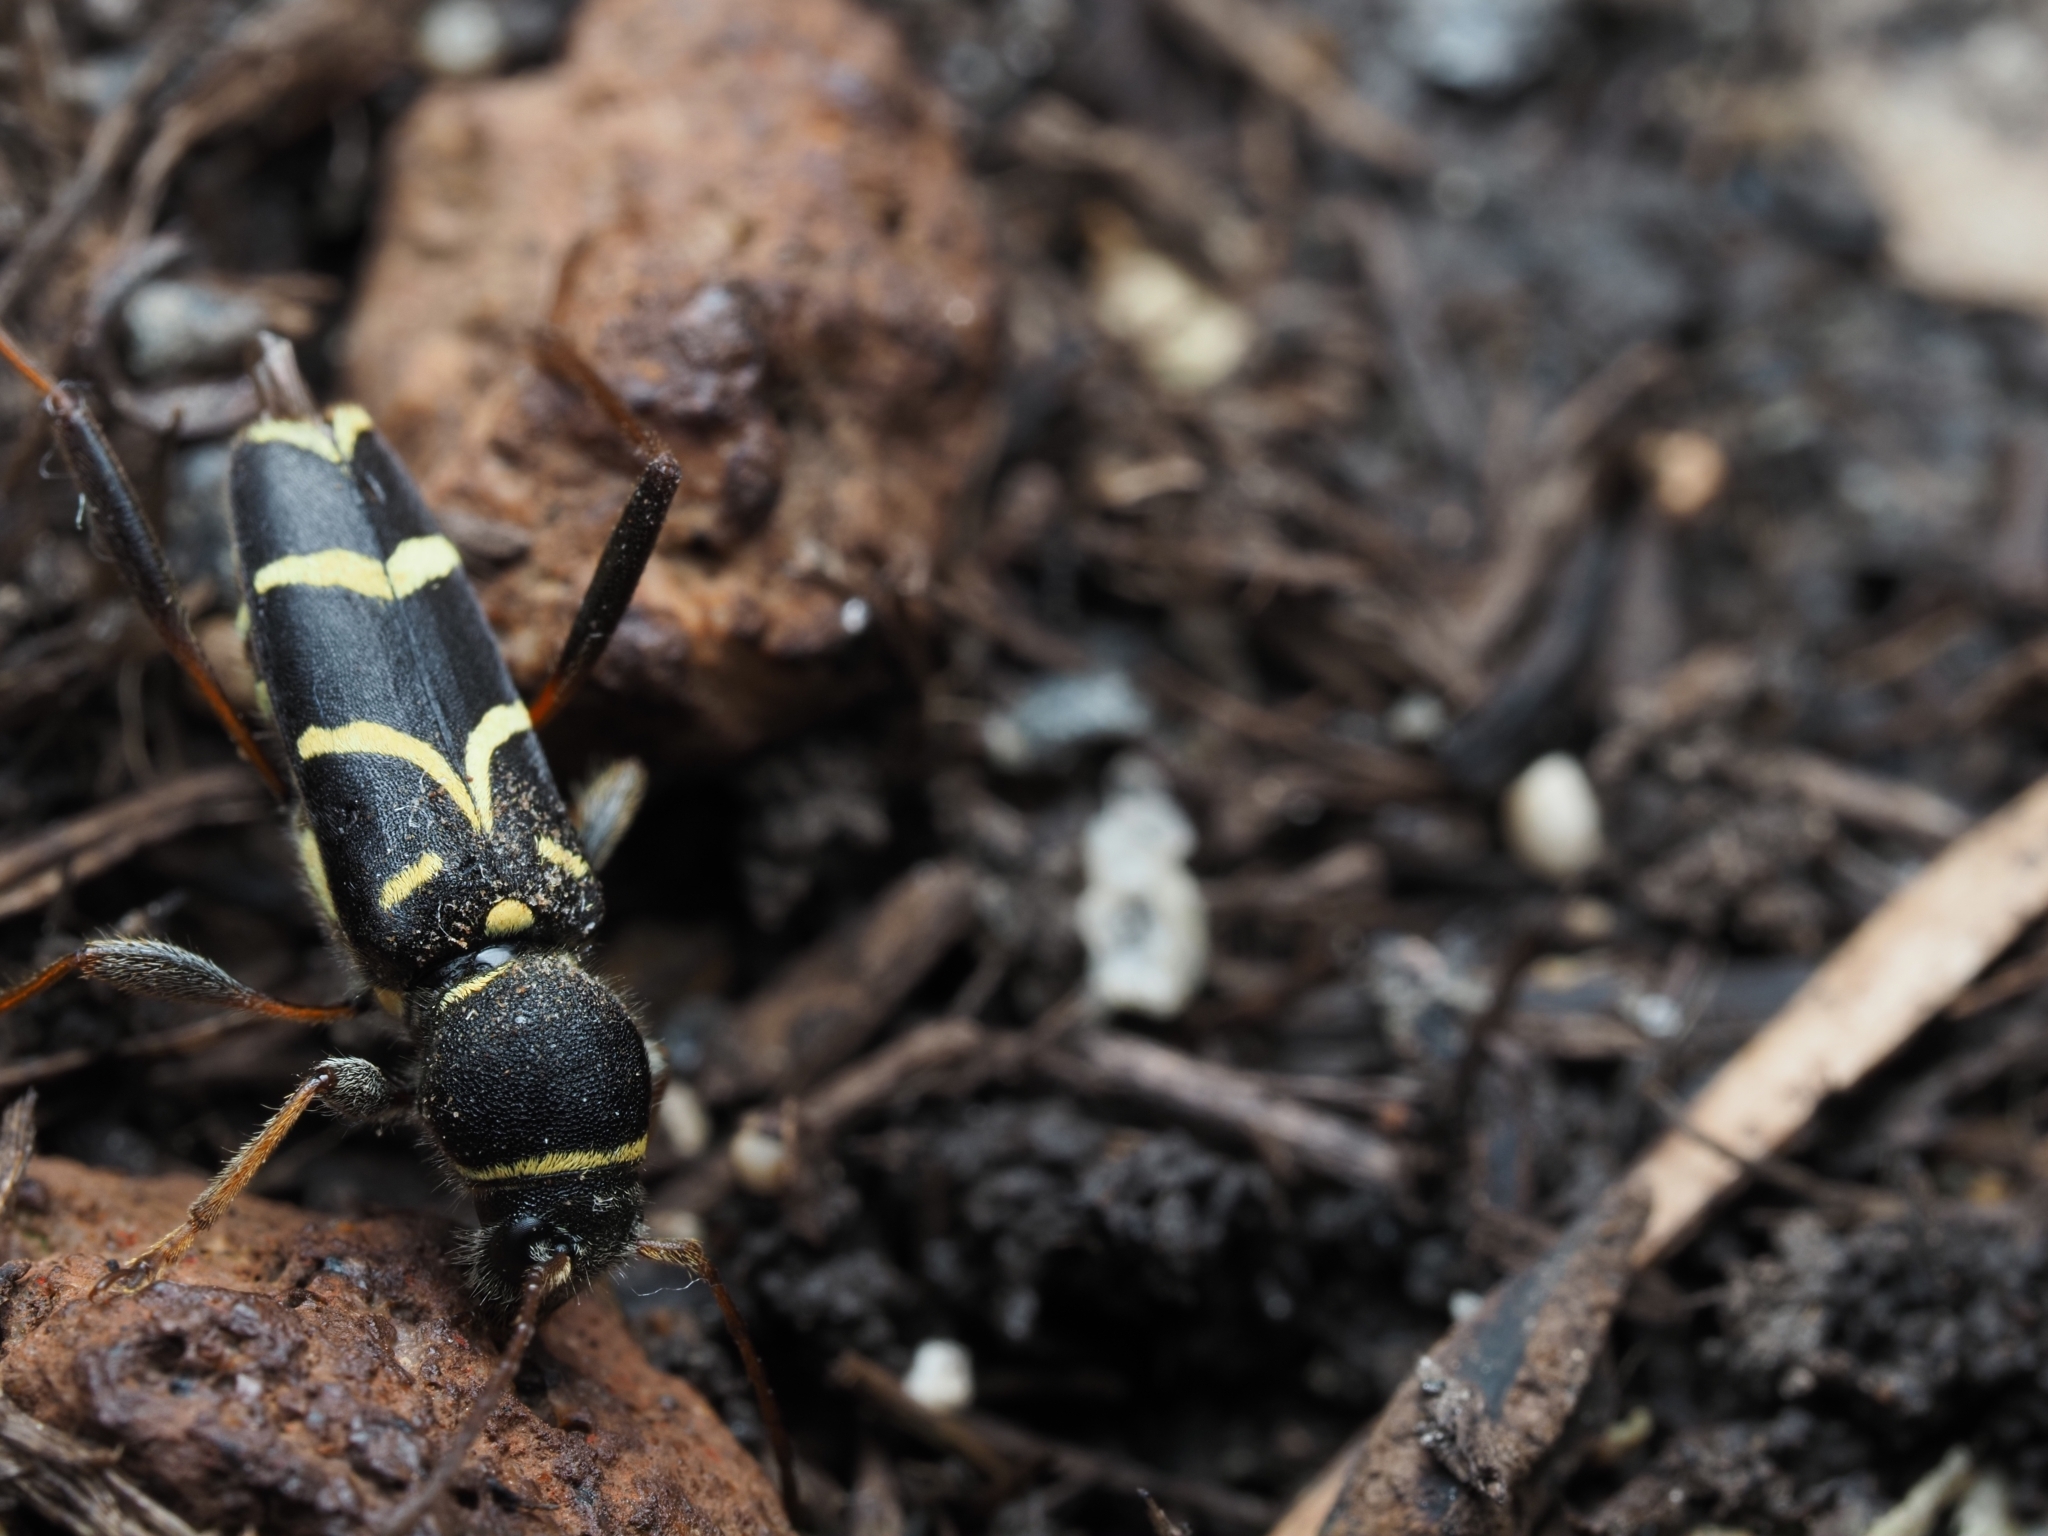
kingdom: Animalia
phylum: Arthropoda
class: Insecta
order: Coleoptera
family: Cerambycidae
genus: Clytus
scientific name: Clytus lama
